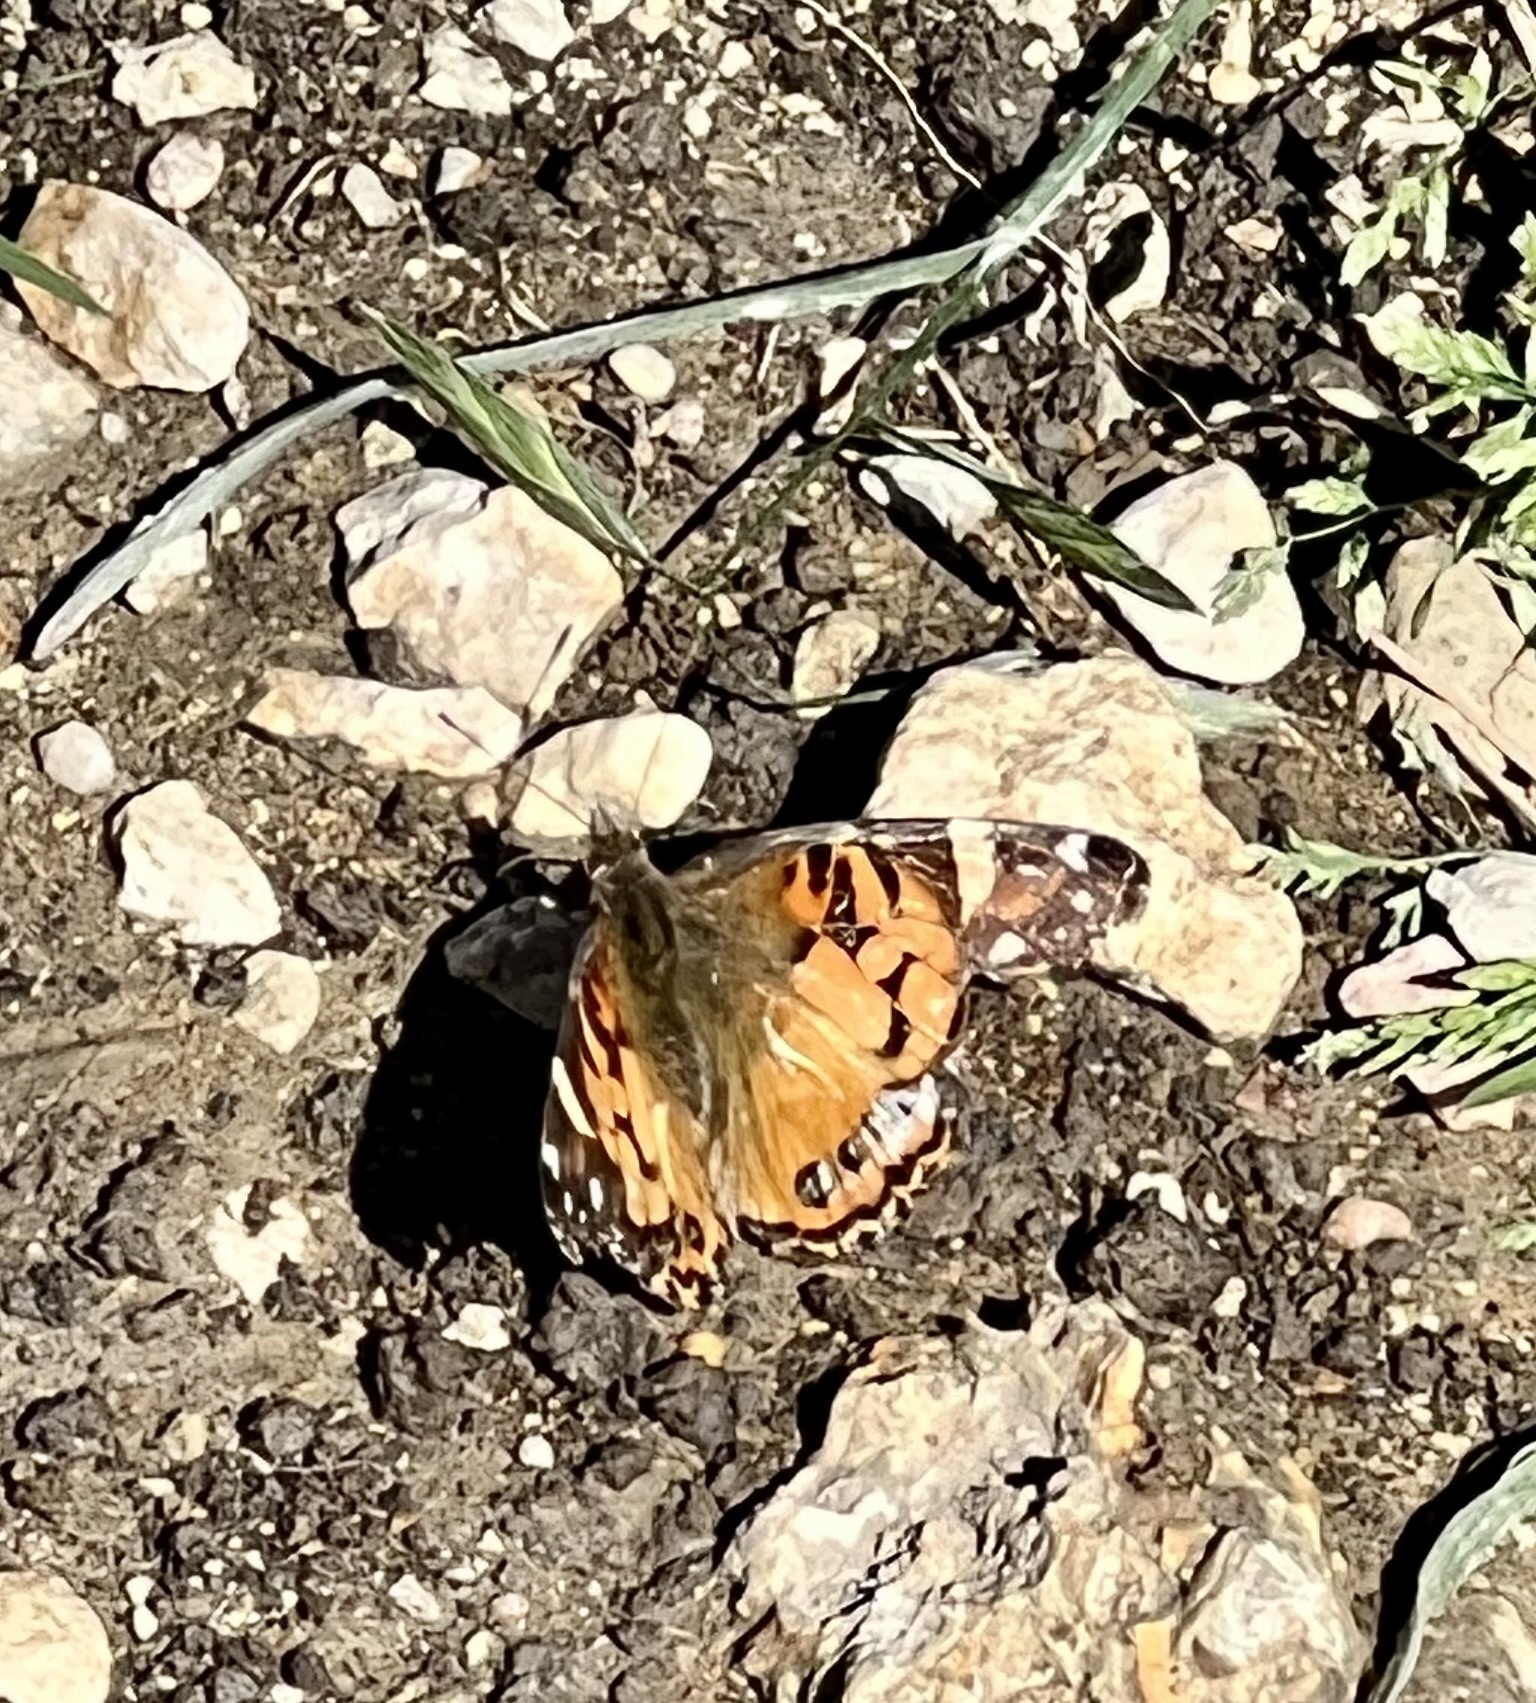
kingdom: Animalia
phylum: Arthropoda
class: Insecta
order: Lepidoptera
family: Nymphalidae
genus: Vanessa
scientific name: Vanessa virginiensis
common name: American lady
